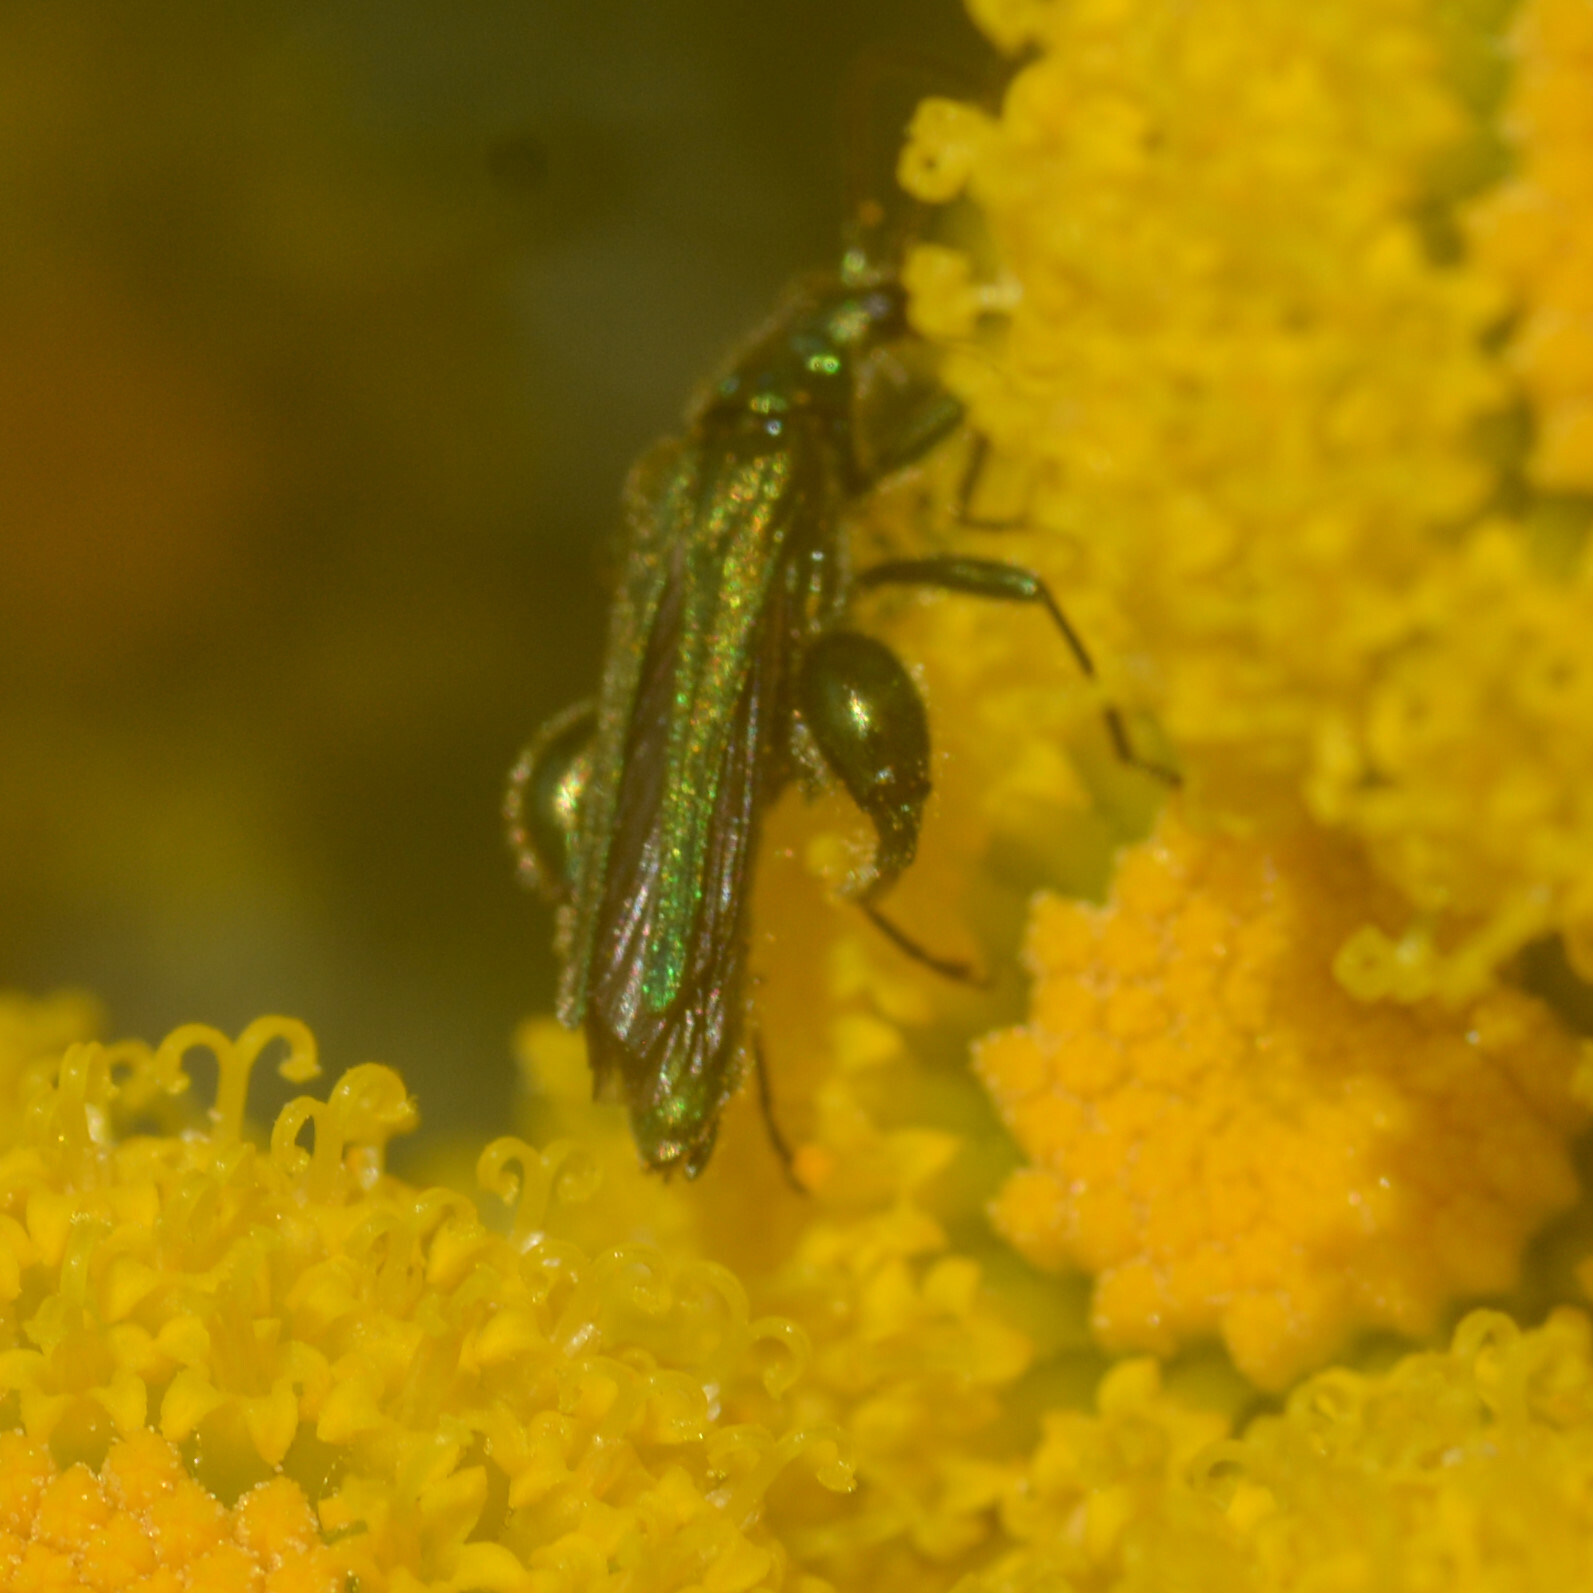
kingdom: Animalia
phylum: Arthropoda
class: Insecta
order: Coleoptera
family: Oedemeridae
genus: Oedemera
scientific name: Oedemera nobilis
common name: Swollen-thighed beetle
